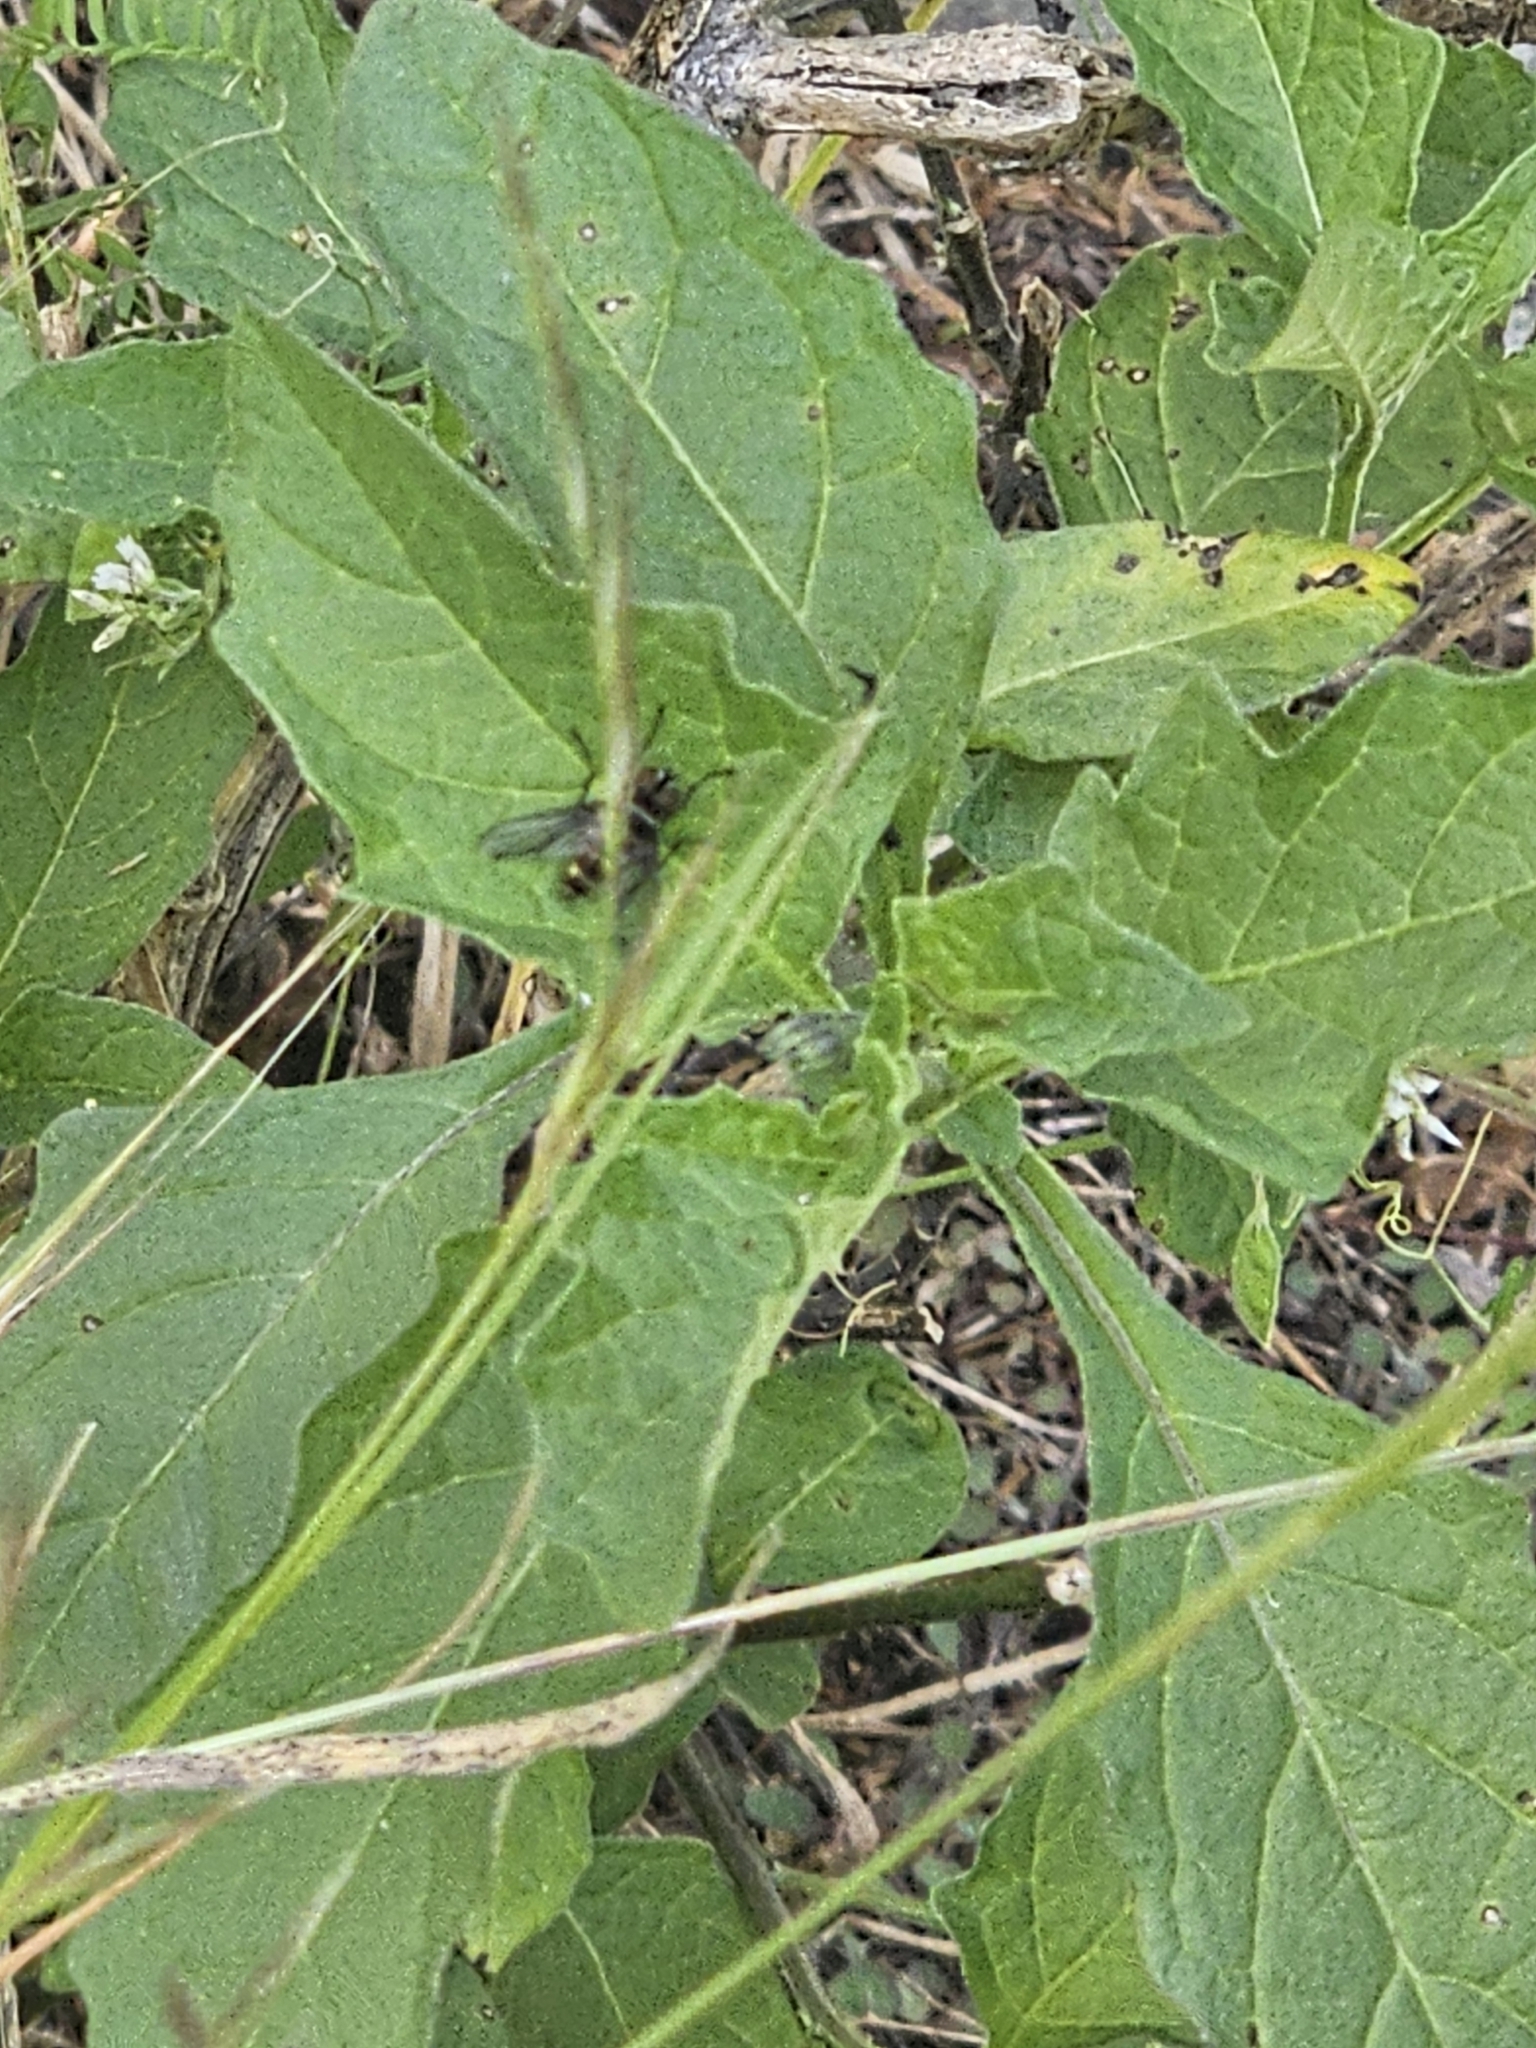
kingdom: Animalia
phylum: Arthropoda
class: Insecta
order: Diptera
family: Tachinidae
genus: Trigonospila
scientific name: Trigonospila brevifacies
